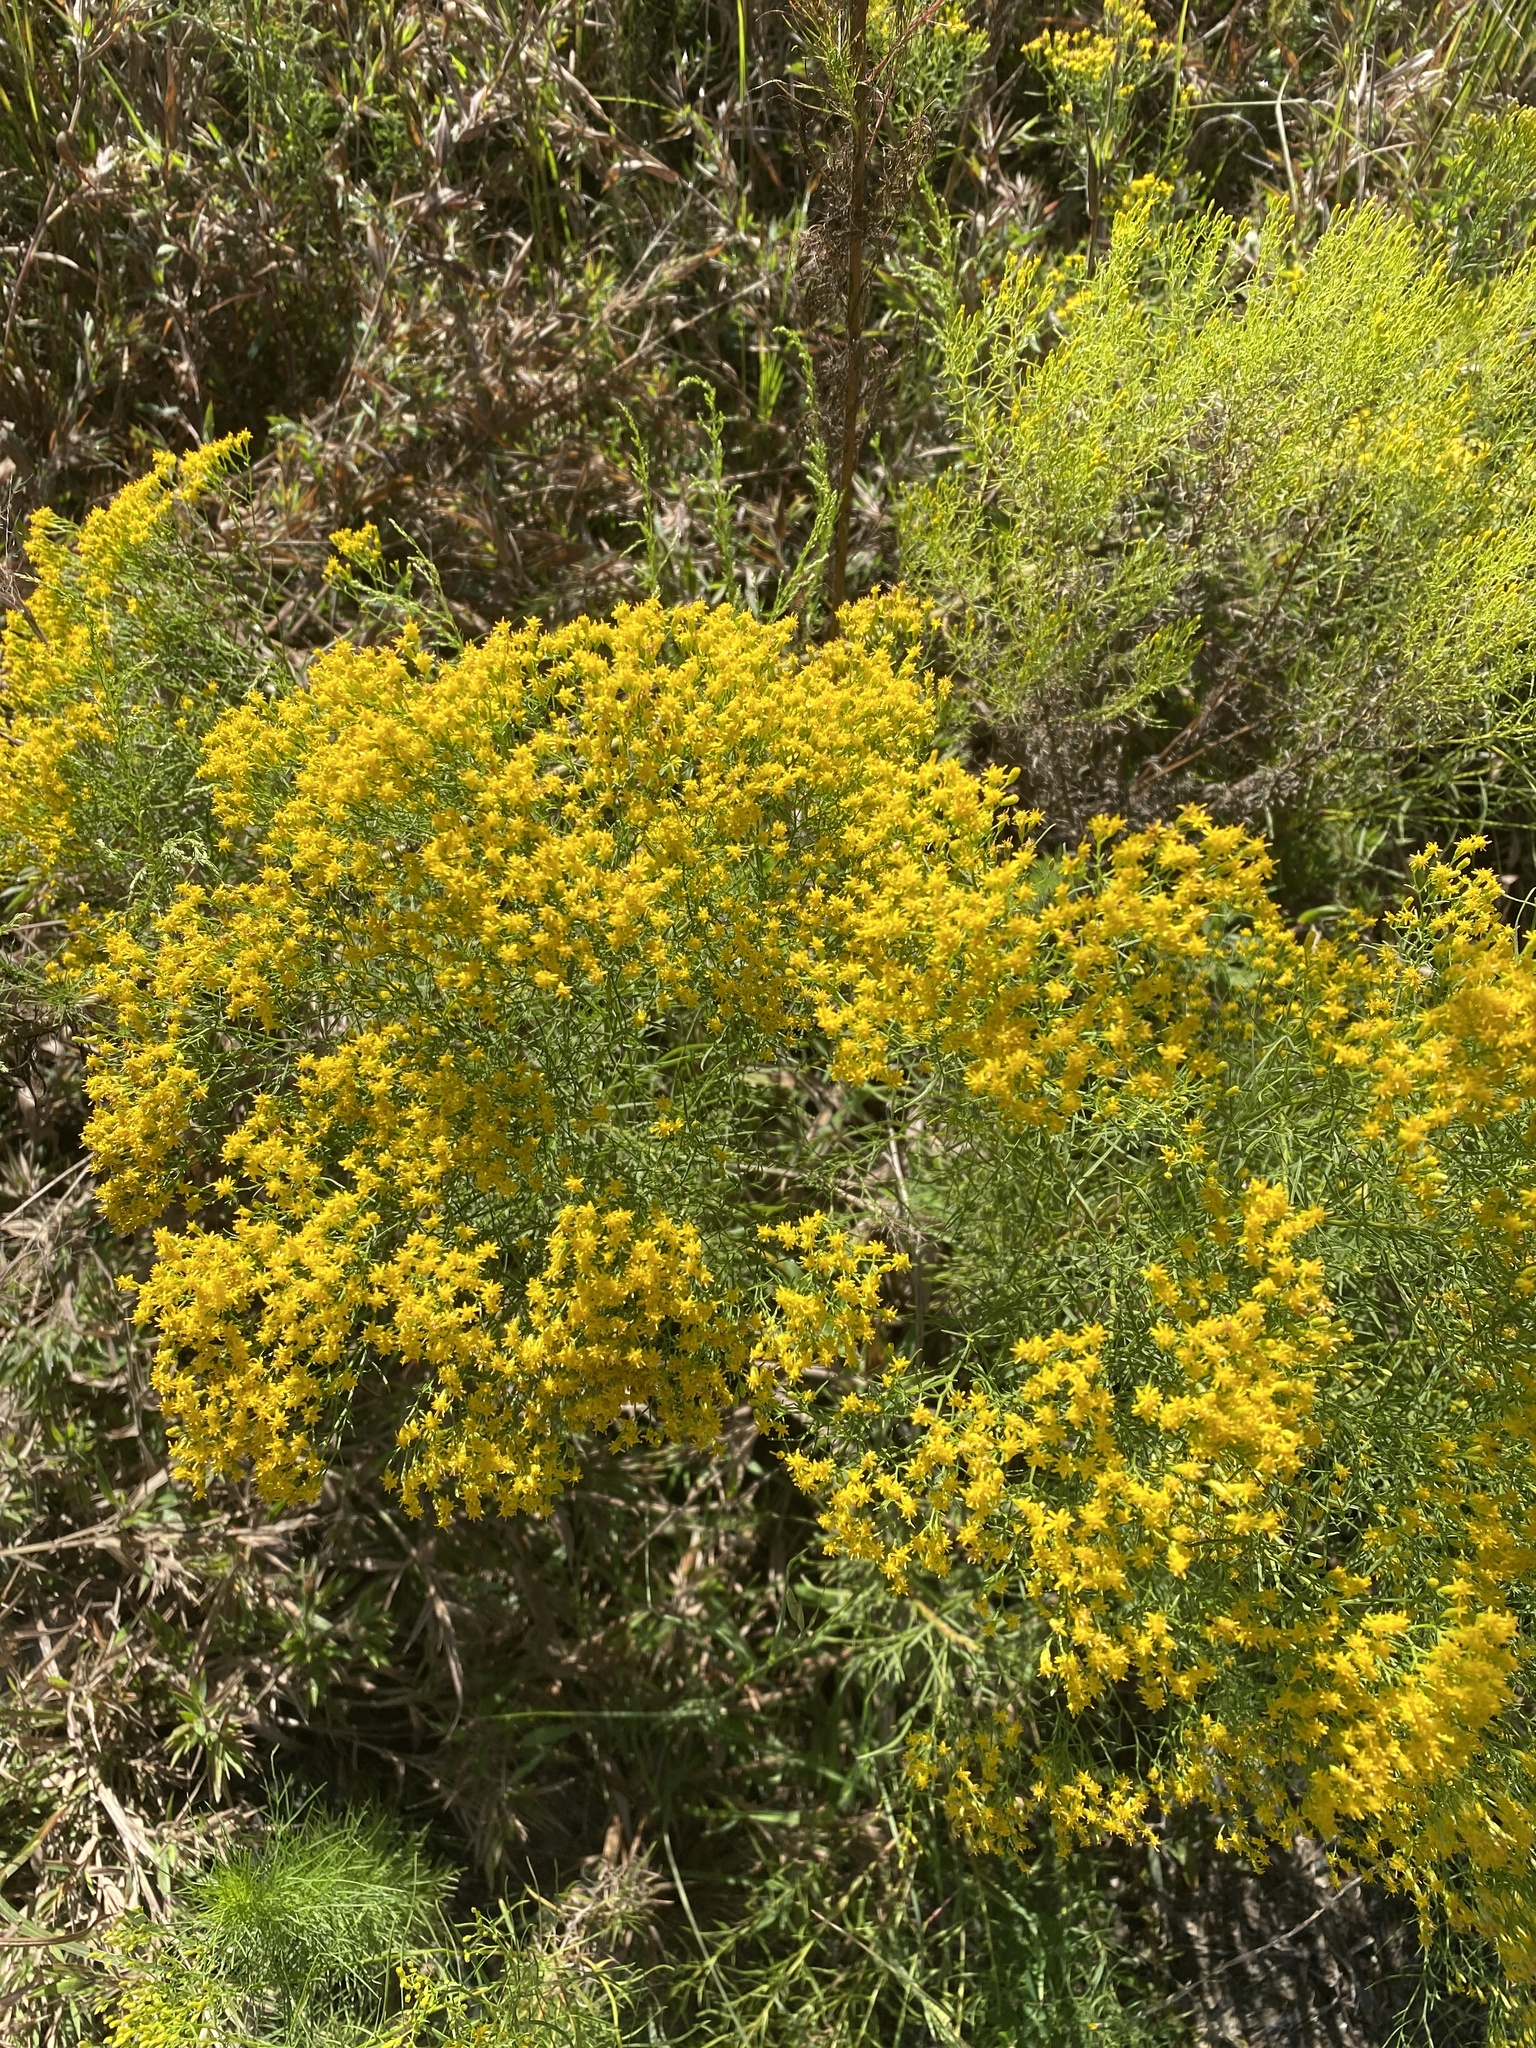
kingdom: Plantae
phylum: Tracheophyta
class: Magnoliopsida
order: Asterales
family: Asteraceae
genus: Euthamia
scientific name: Euthamia caroliniana
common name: Coastal plain goldentop
